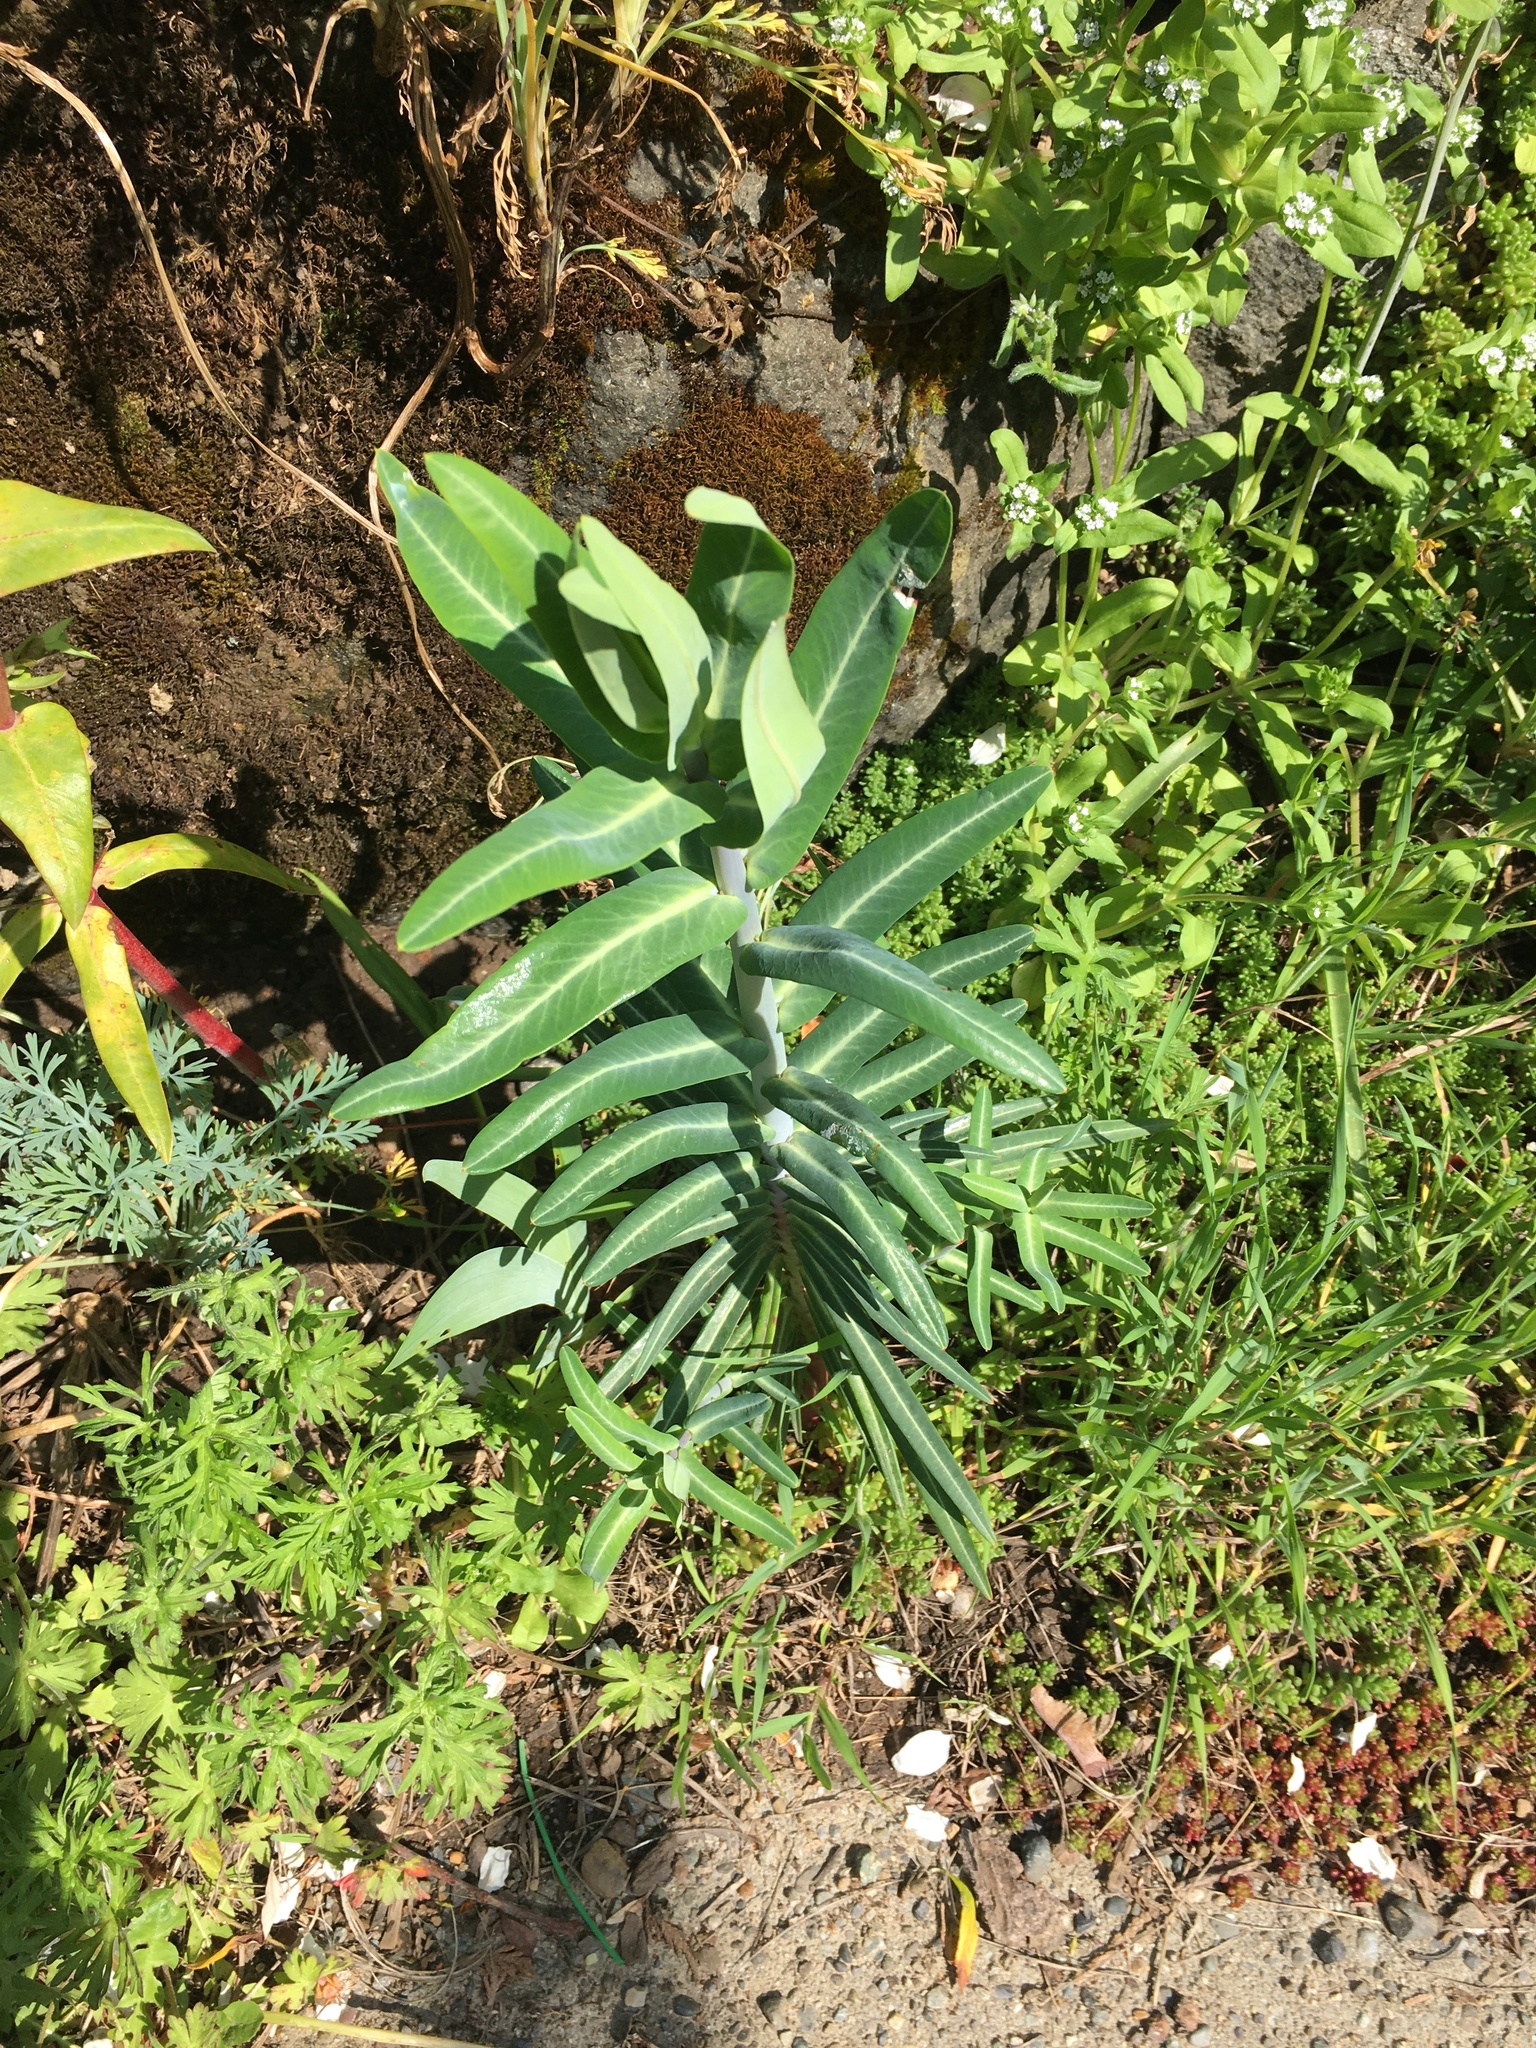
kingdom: Plantae
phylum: Tracheophyta
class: Magnoliopsida
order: Malpighiales
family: Euphorbiaceae
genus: Euphorbia
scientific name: Euphorbia lathyris
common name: Caper spurge
